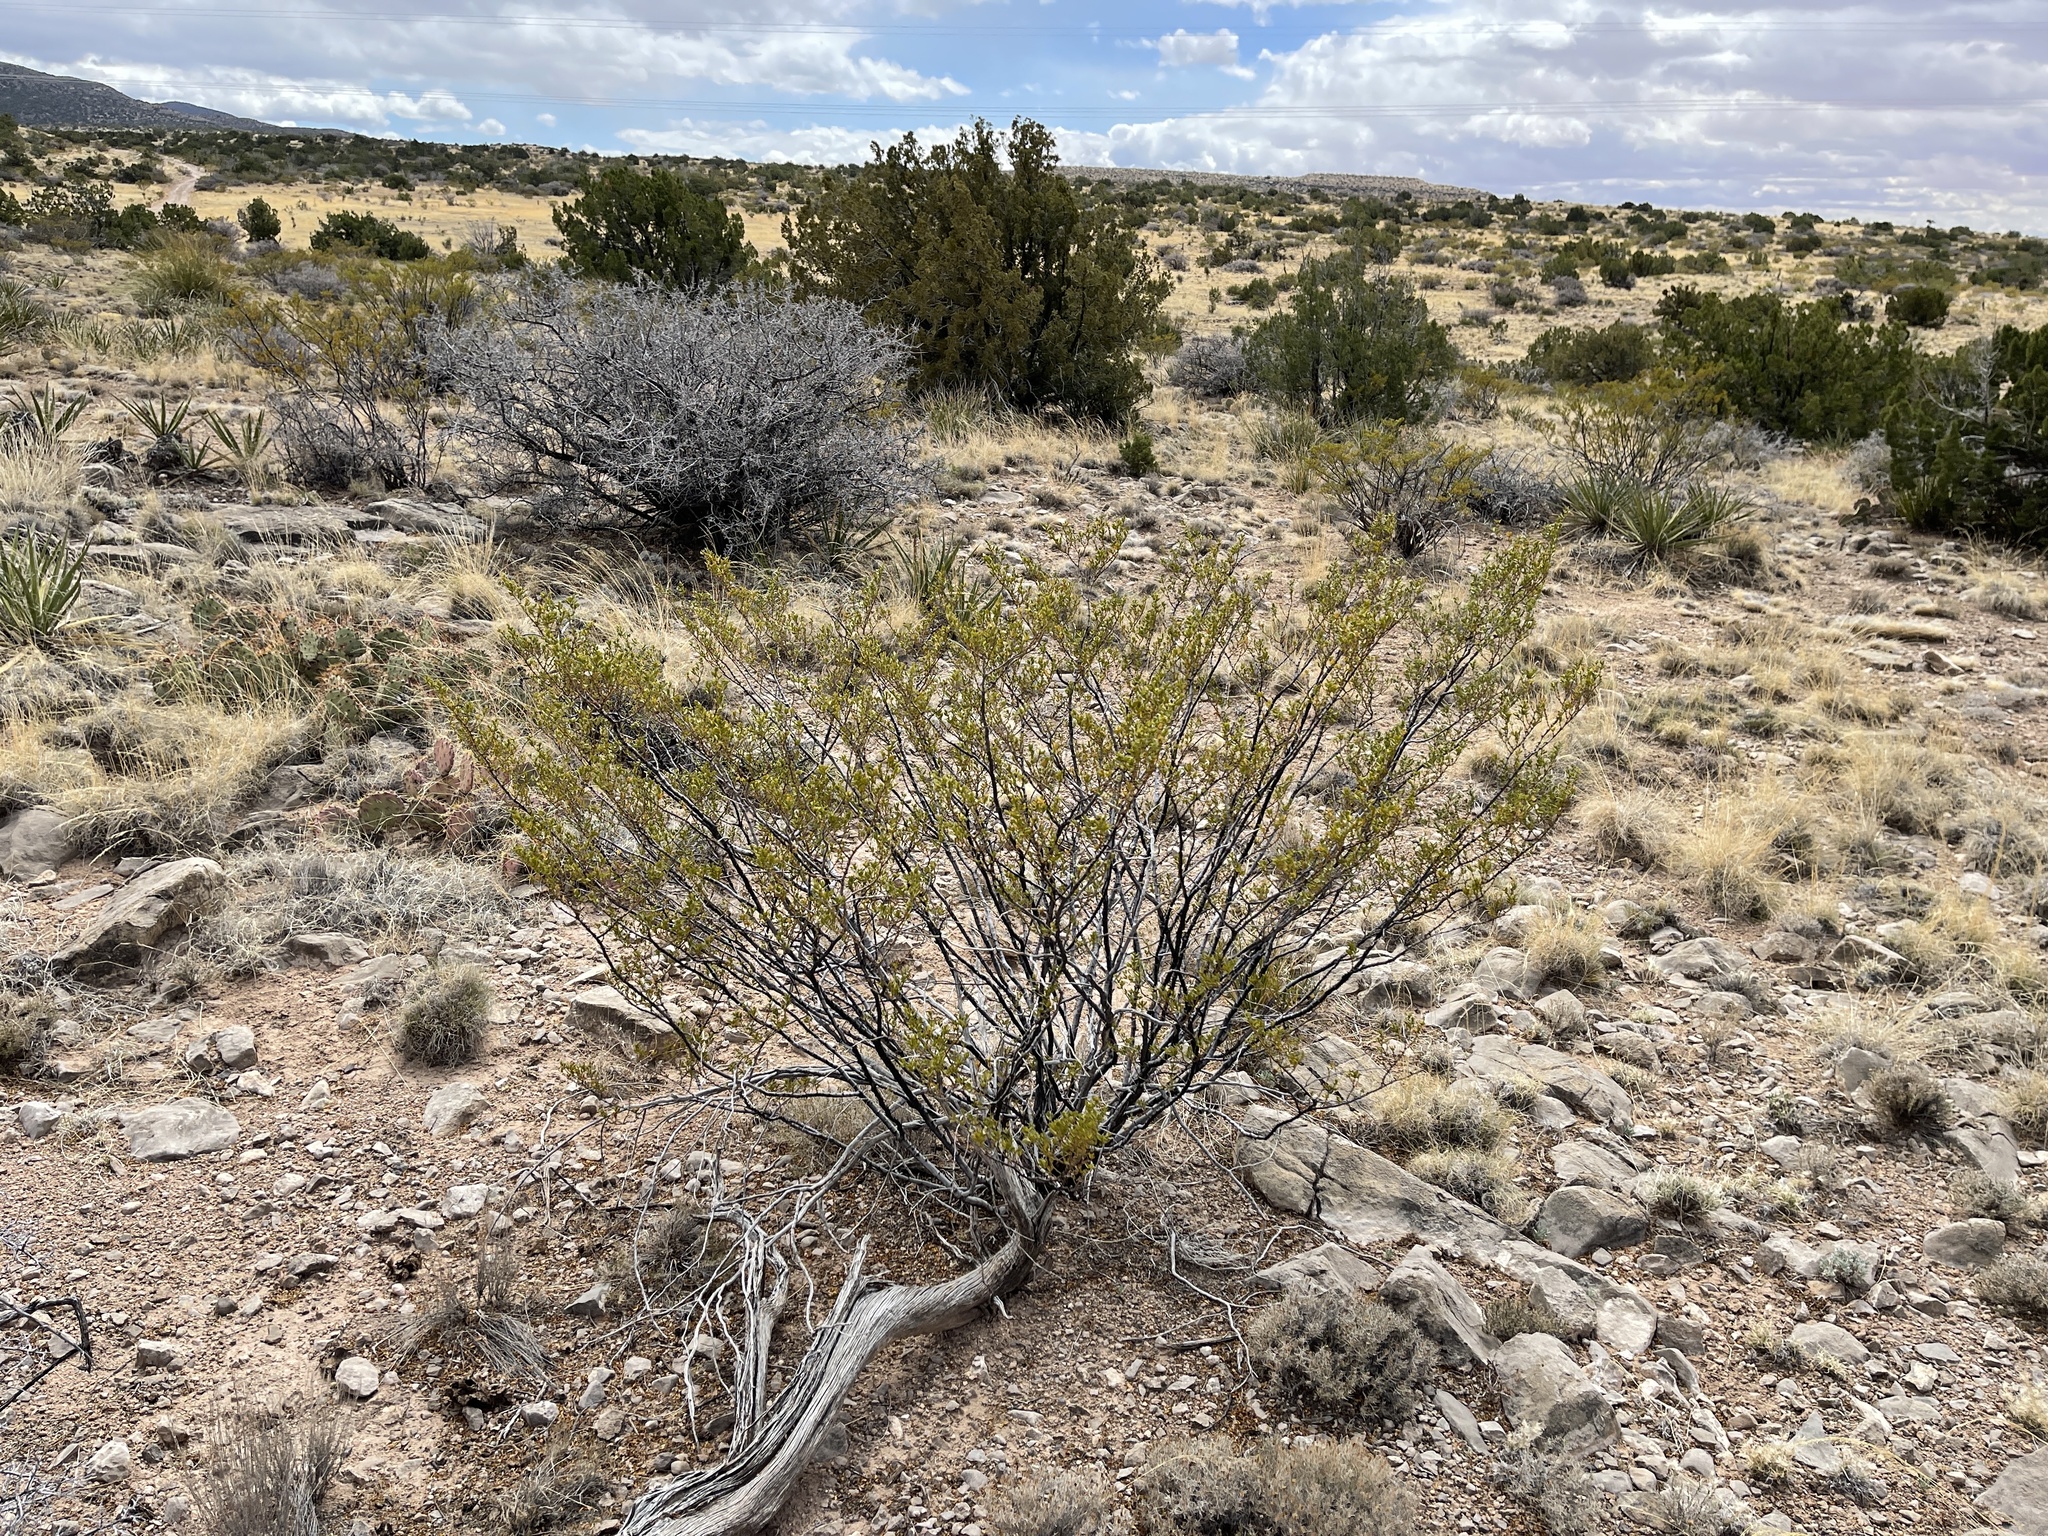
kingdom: Plantae
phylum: Tracheophyta
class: Magnoliopsida
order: Zygophyllales
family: Zygophyllaceae
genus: Larrea
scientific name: Larrea tridentata
